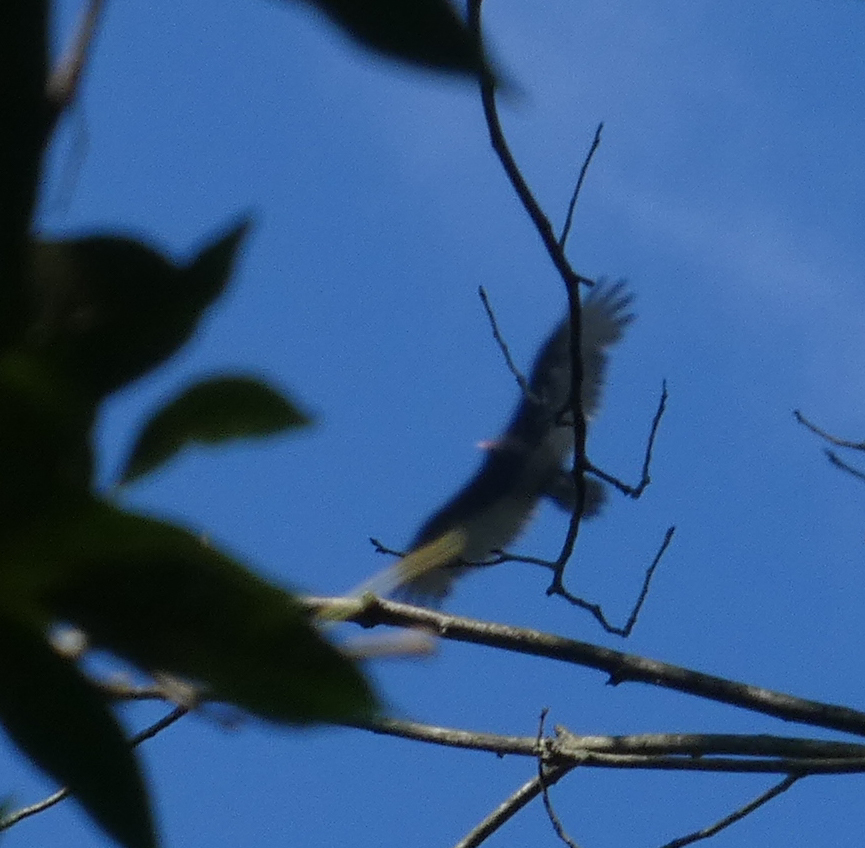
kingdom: Animalia
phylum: Chordata
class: Aves
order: Accipitriformes
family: Cathartidae
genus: Cathartes
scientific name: Cathartes aura
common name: Turkey vulture
